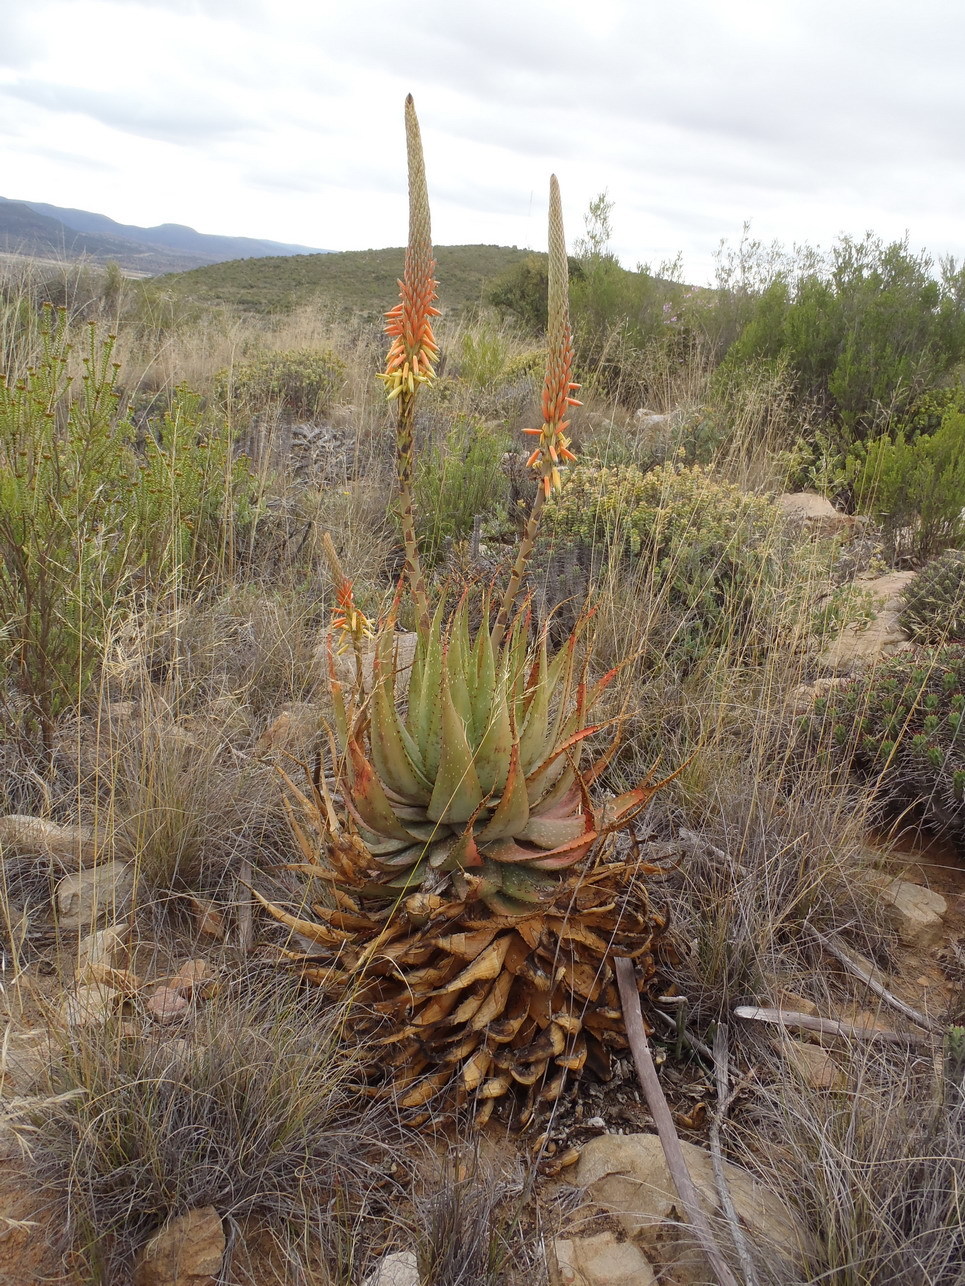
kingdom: Plantae
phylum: Tracheophyta
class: Liliopsida
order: Asparagales
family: Asphodelaceae
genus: Aloe
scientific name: Aloe microstigma
